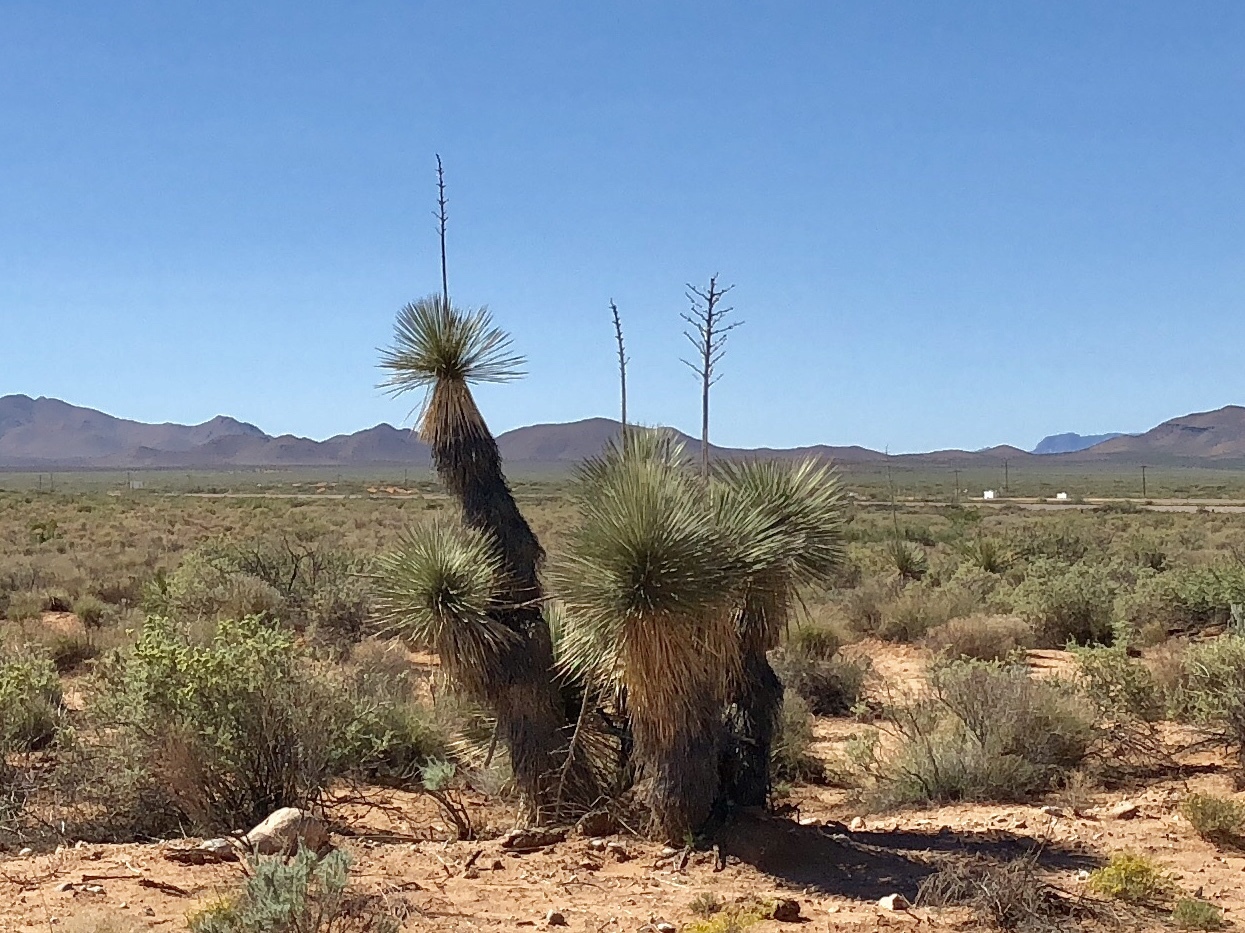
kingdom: Plantae
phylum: Tracheophyta
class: Liliopsida
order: Asparagales
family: Asparagaceae
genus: Yucca
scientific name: Yucca elata
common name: Palmella
